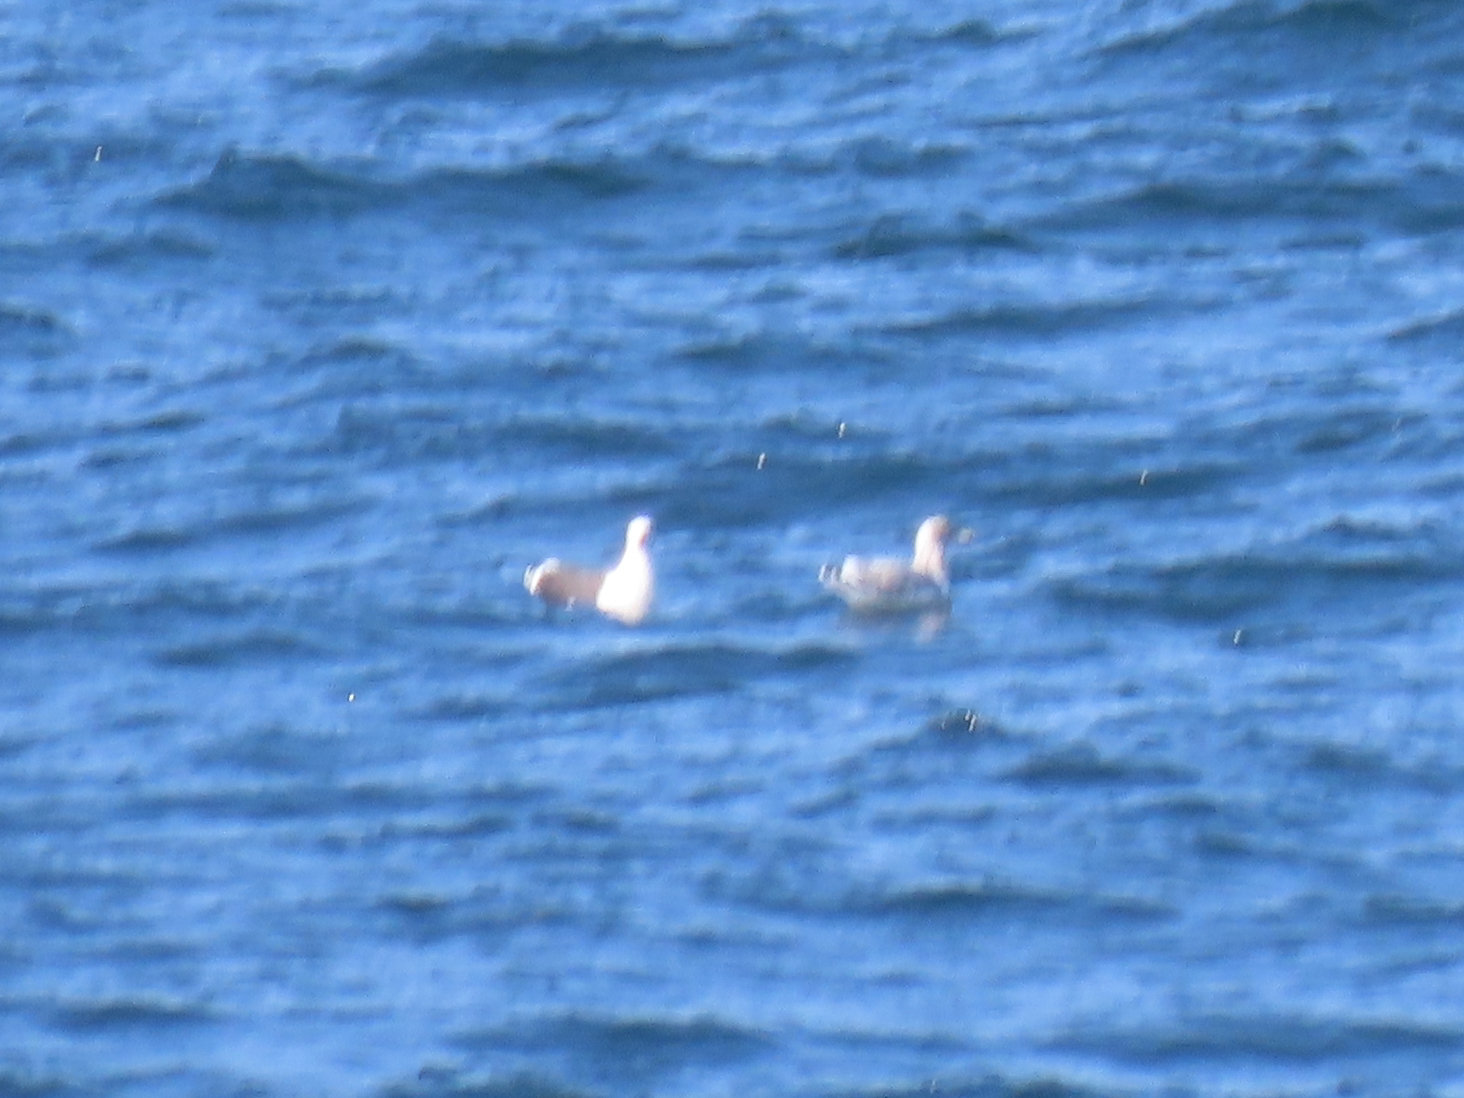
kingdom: Animalia
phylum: Chordata
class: Aves
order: Charadriiformes
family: Laridae
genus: Larus
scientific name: Larus marinus
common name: Great black-backed gull
